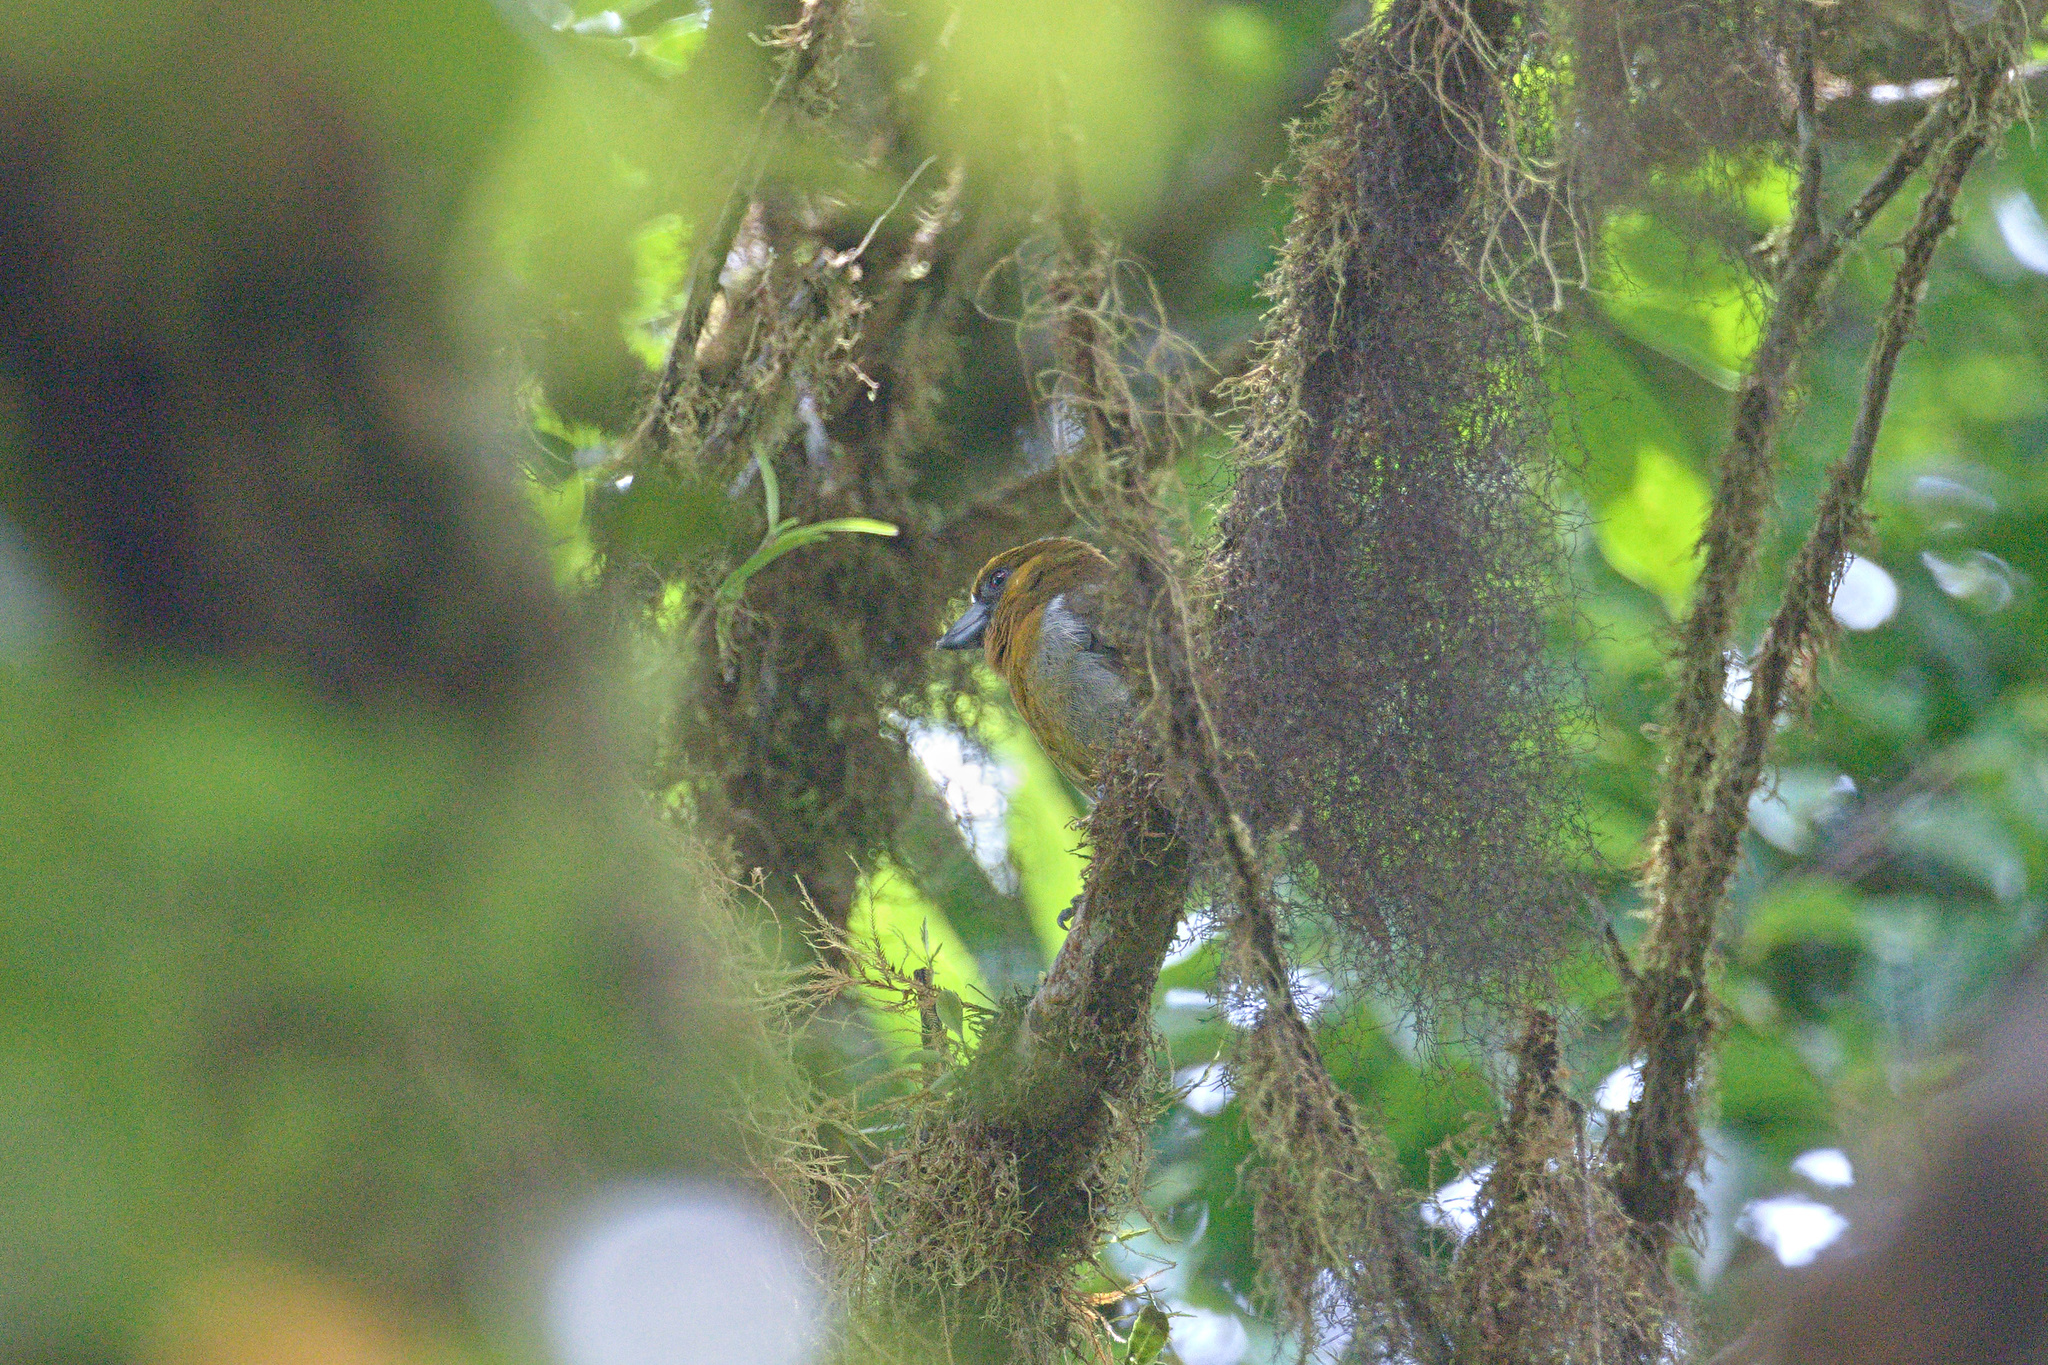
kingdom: Animalia
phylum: Chordata
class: Aves
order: Piciformes
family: Semnornithidae
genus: Semnornis
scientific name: Semnornis frantzii
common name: Prong-billed barbet
